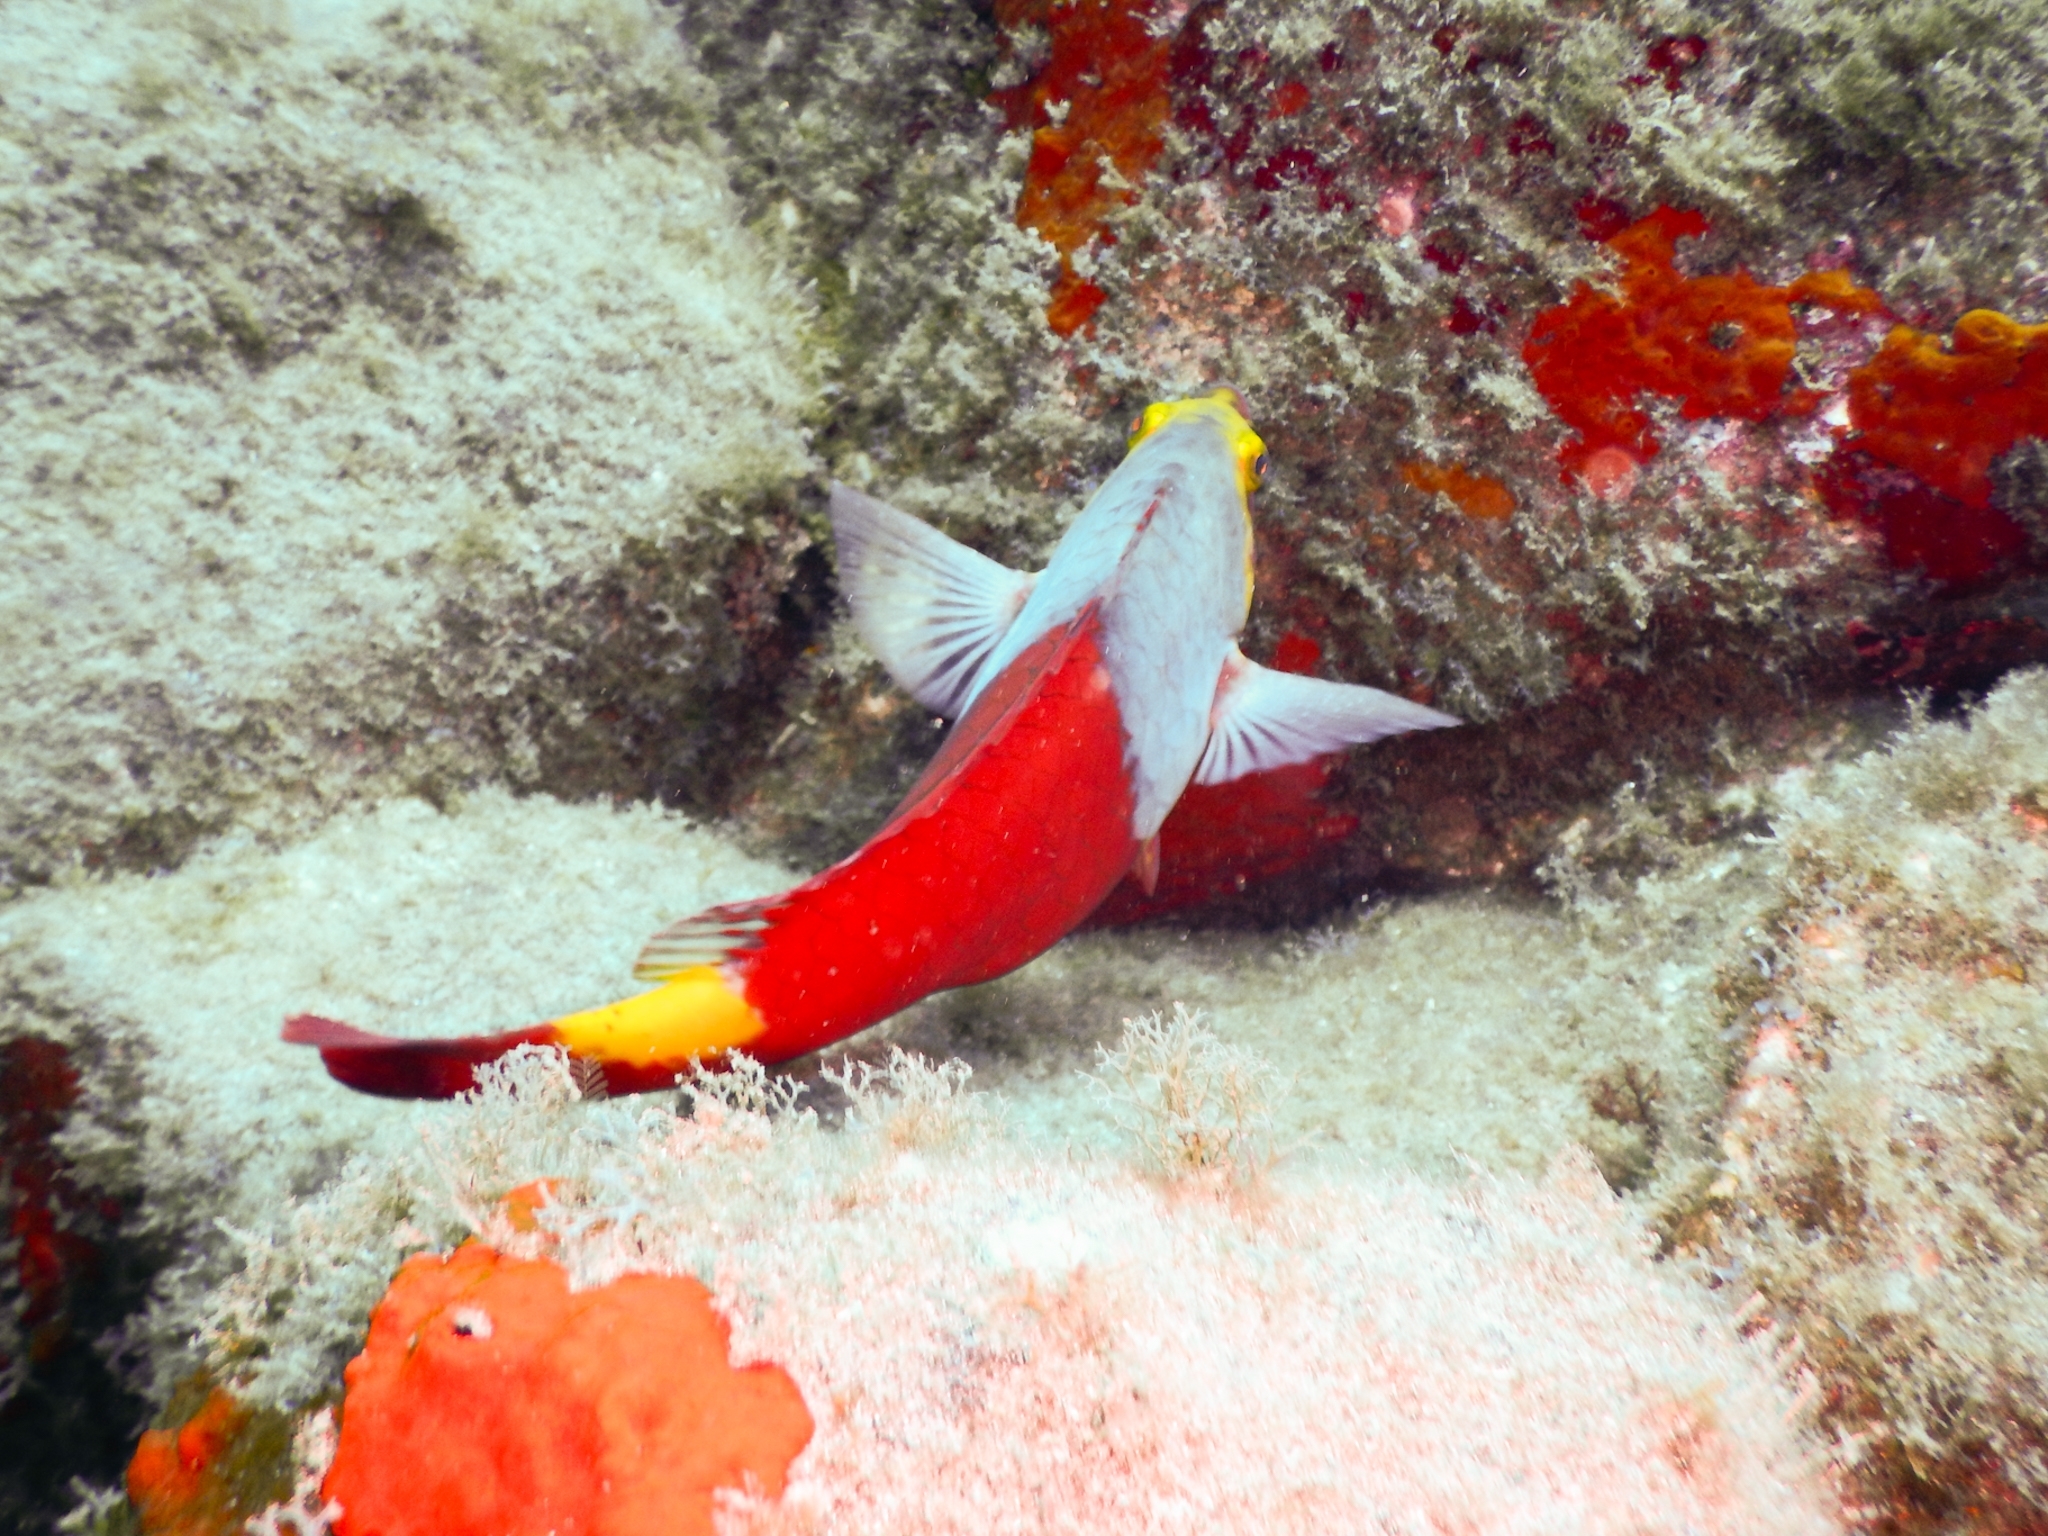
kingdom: Animalia
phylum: Chordata
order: Perciformes
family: Scaridae
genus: Sparisoma
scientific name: Sparisoma cretense
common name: Parrotfish
